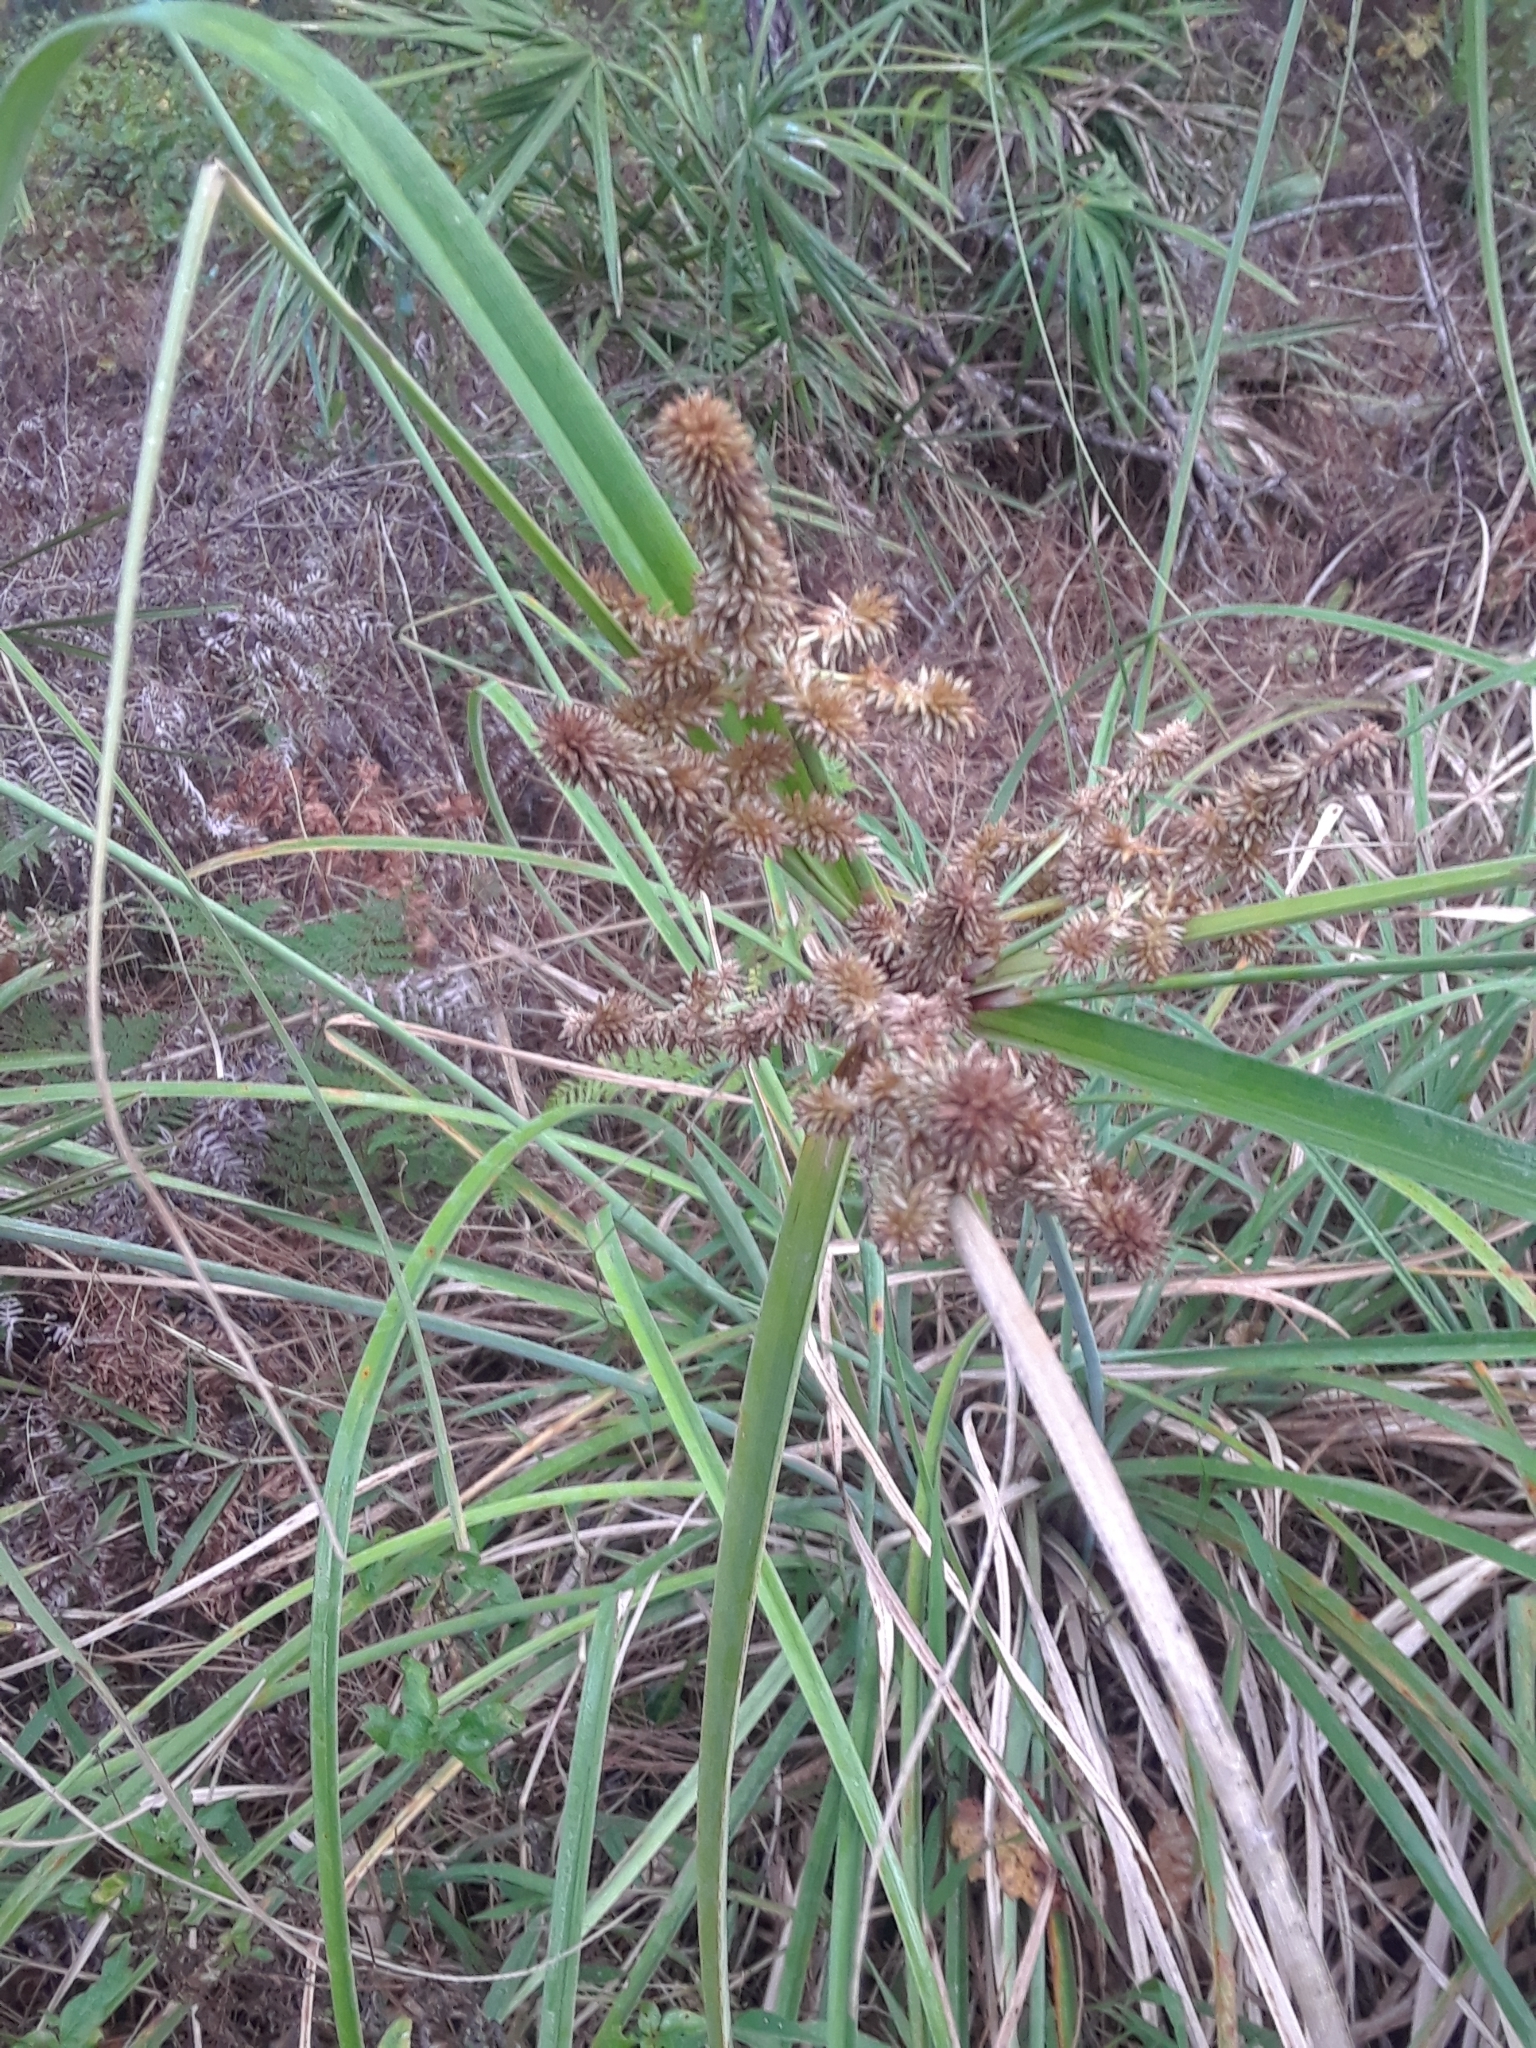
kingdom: Plantae
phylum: Tracheophyta
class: Liliopsida
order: Poales
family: Cyperaceae
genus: Cyperus
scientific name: Cyperus ligularis
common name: Swamp flat sedge
